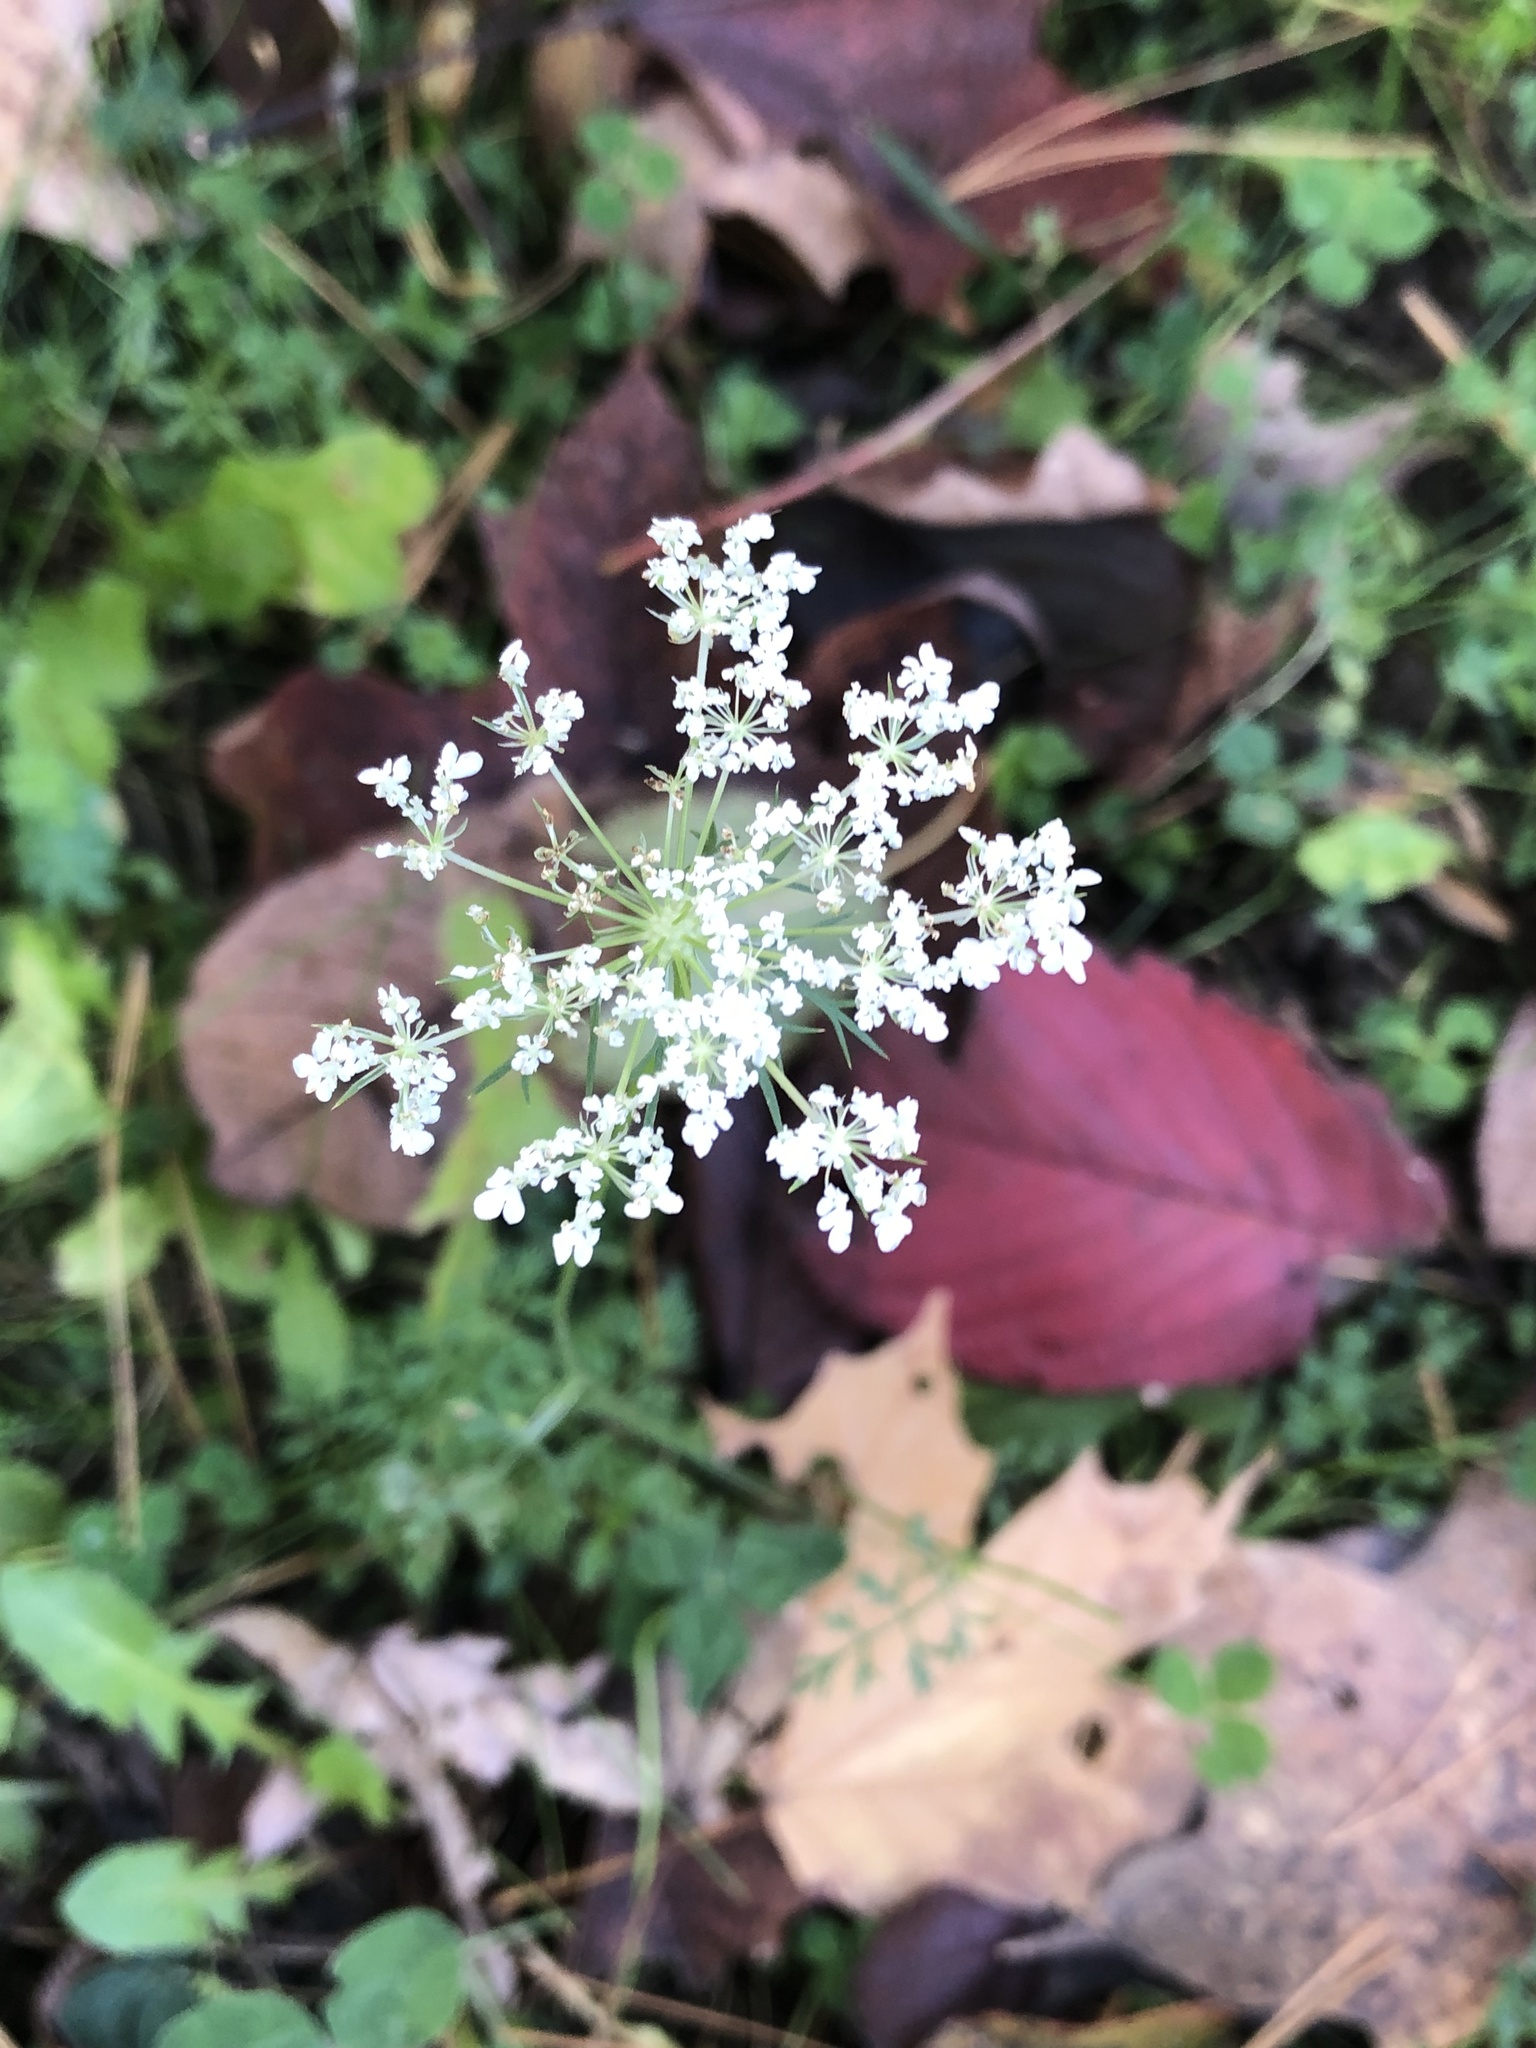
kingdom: Plantae
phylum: Tracheophyta
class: Magnoliopsida
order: Apiales
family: Apiaceae
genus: Daucus
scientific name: Daucus carota
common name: Wild carrot
